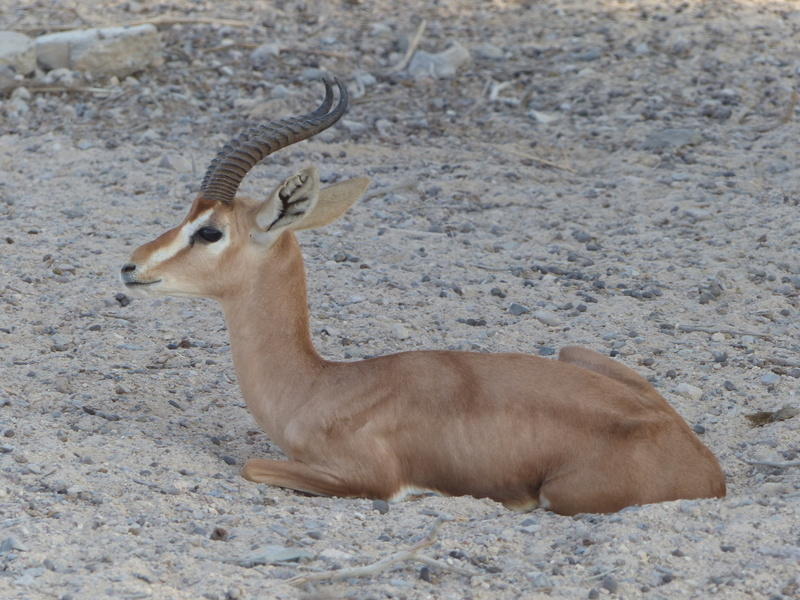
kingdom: Animalia
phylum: Chordata
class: Mammalia
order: Artiodactyla
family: Bovidae
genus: Gazella
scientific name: Gazella arabica
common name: Arabian gazelle
